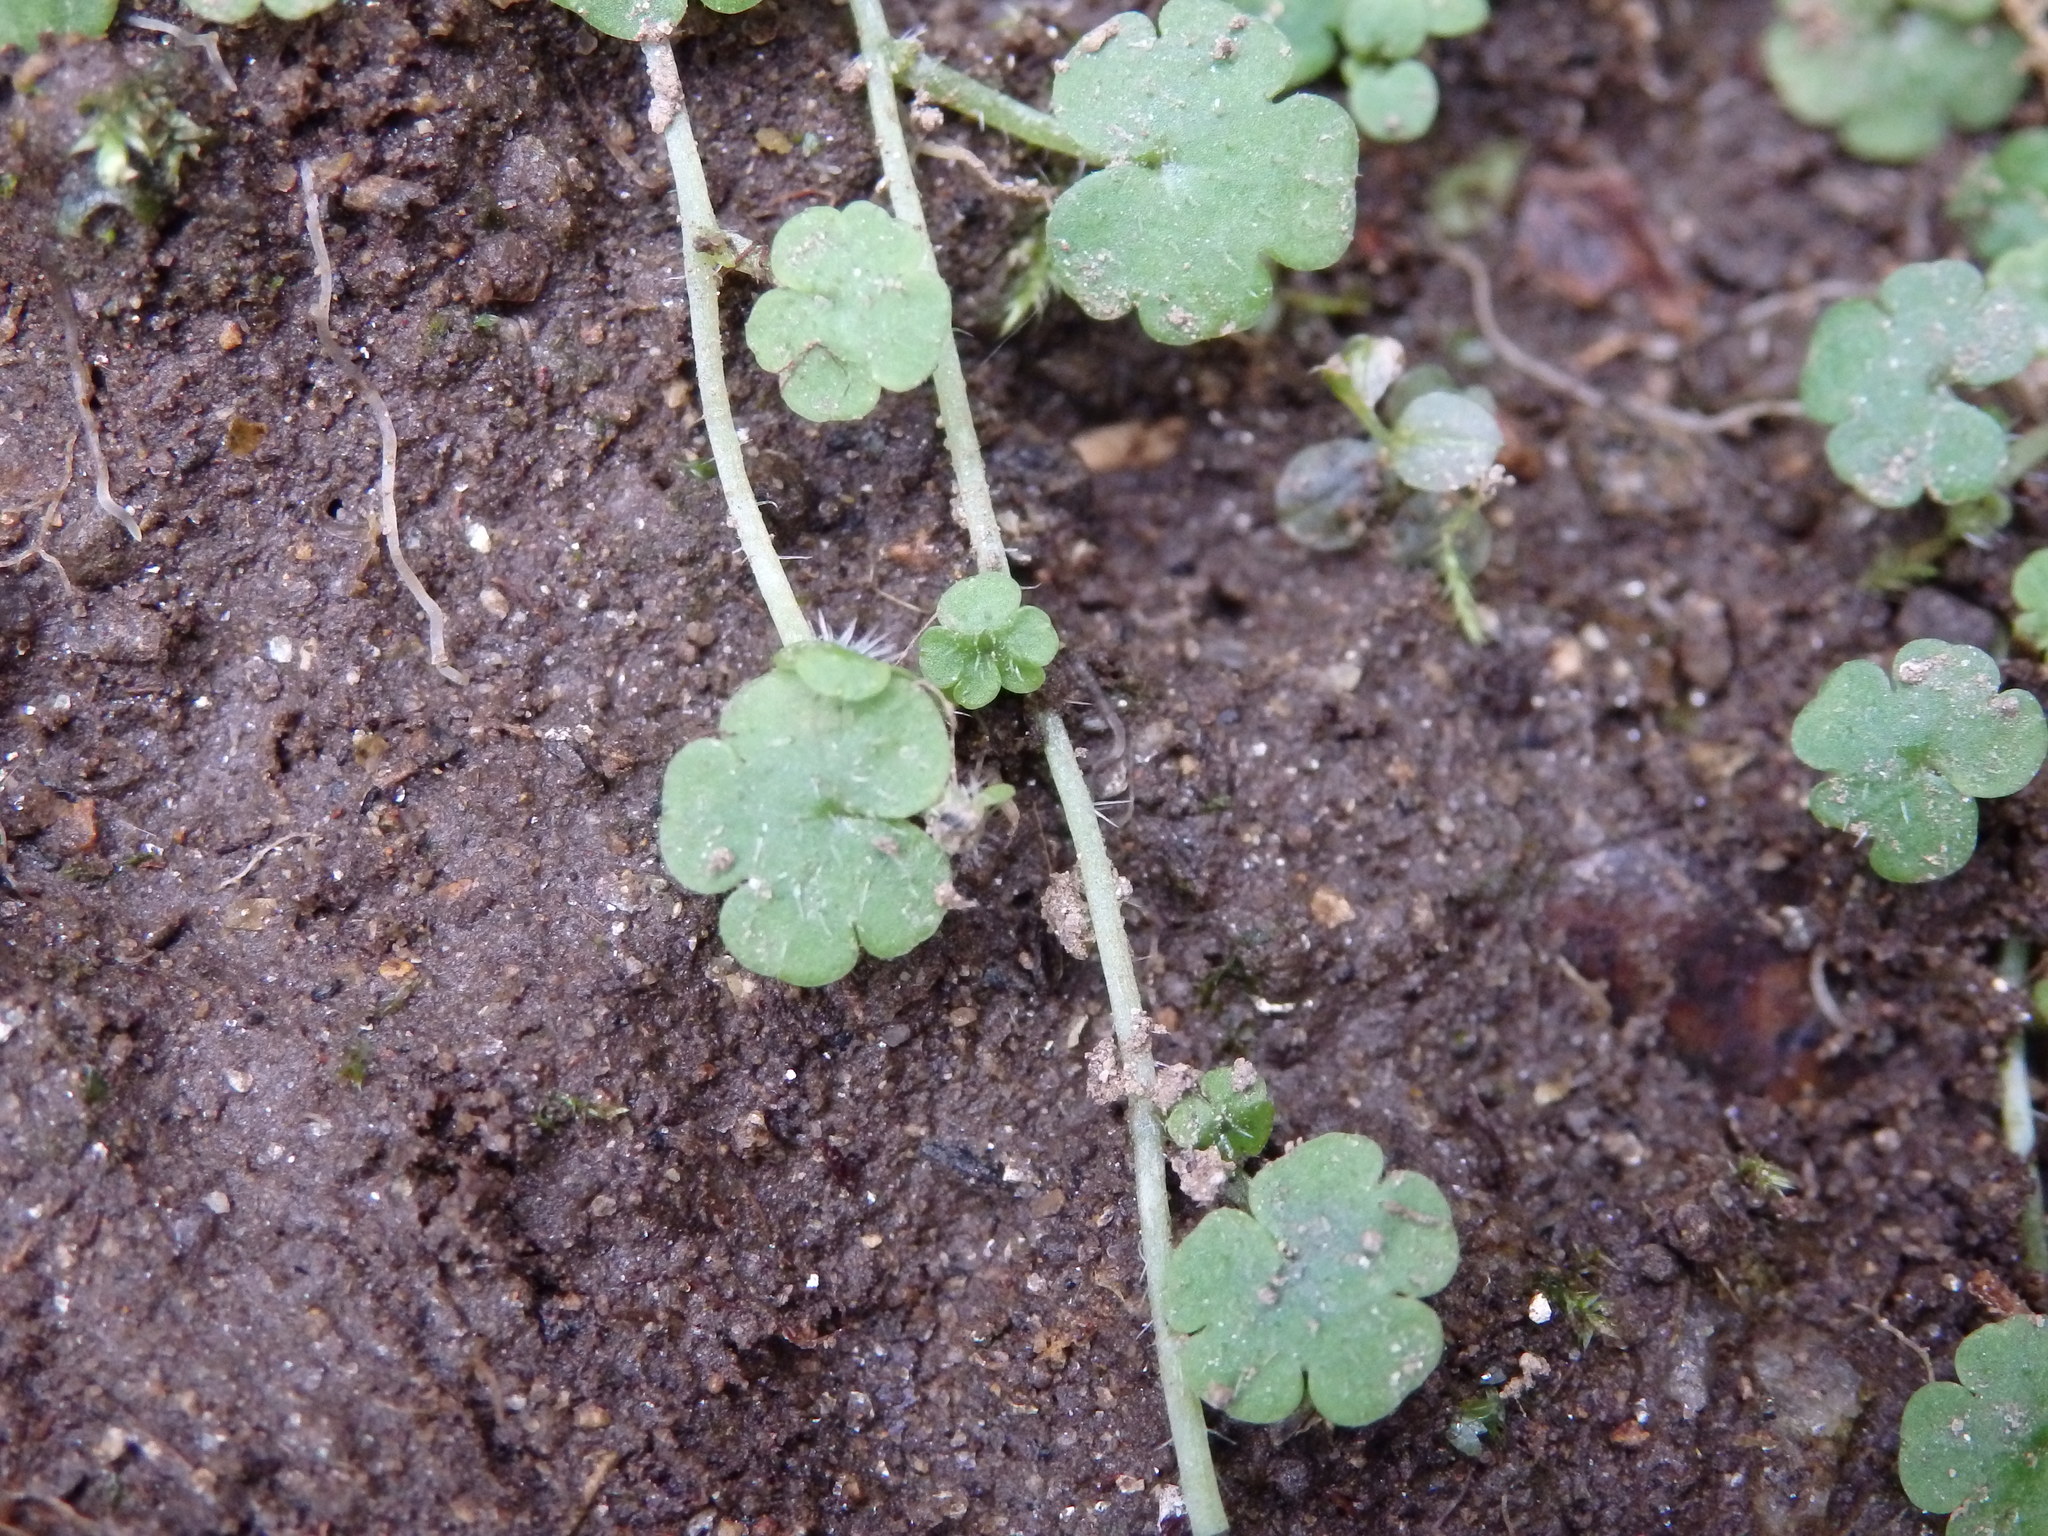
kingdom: Plantae
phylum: Tracheophyta
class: Magnoliopsida
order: Lamiales
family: Plantaginaceae
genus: Sibthorpia
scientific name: Sibthorpia europaea
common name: Cornish moneywort
